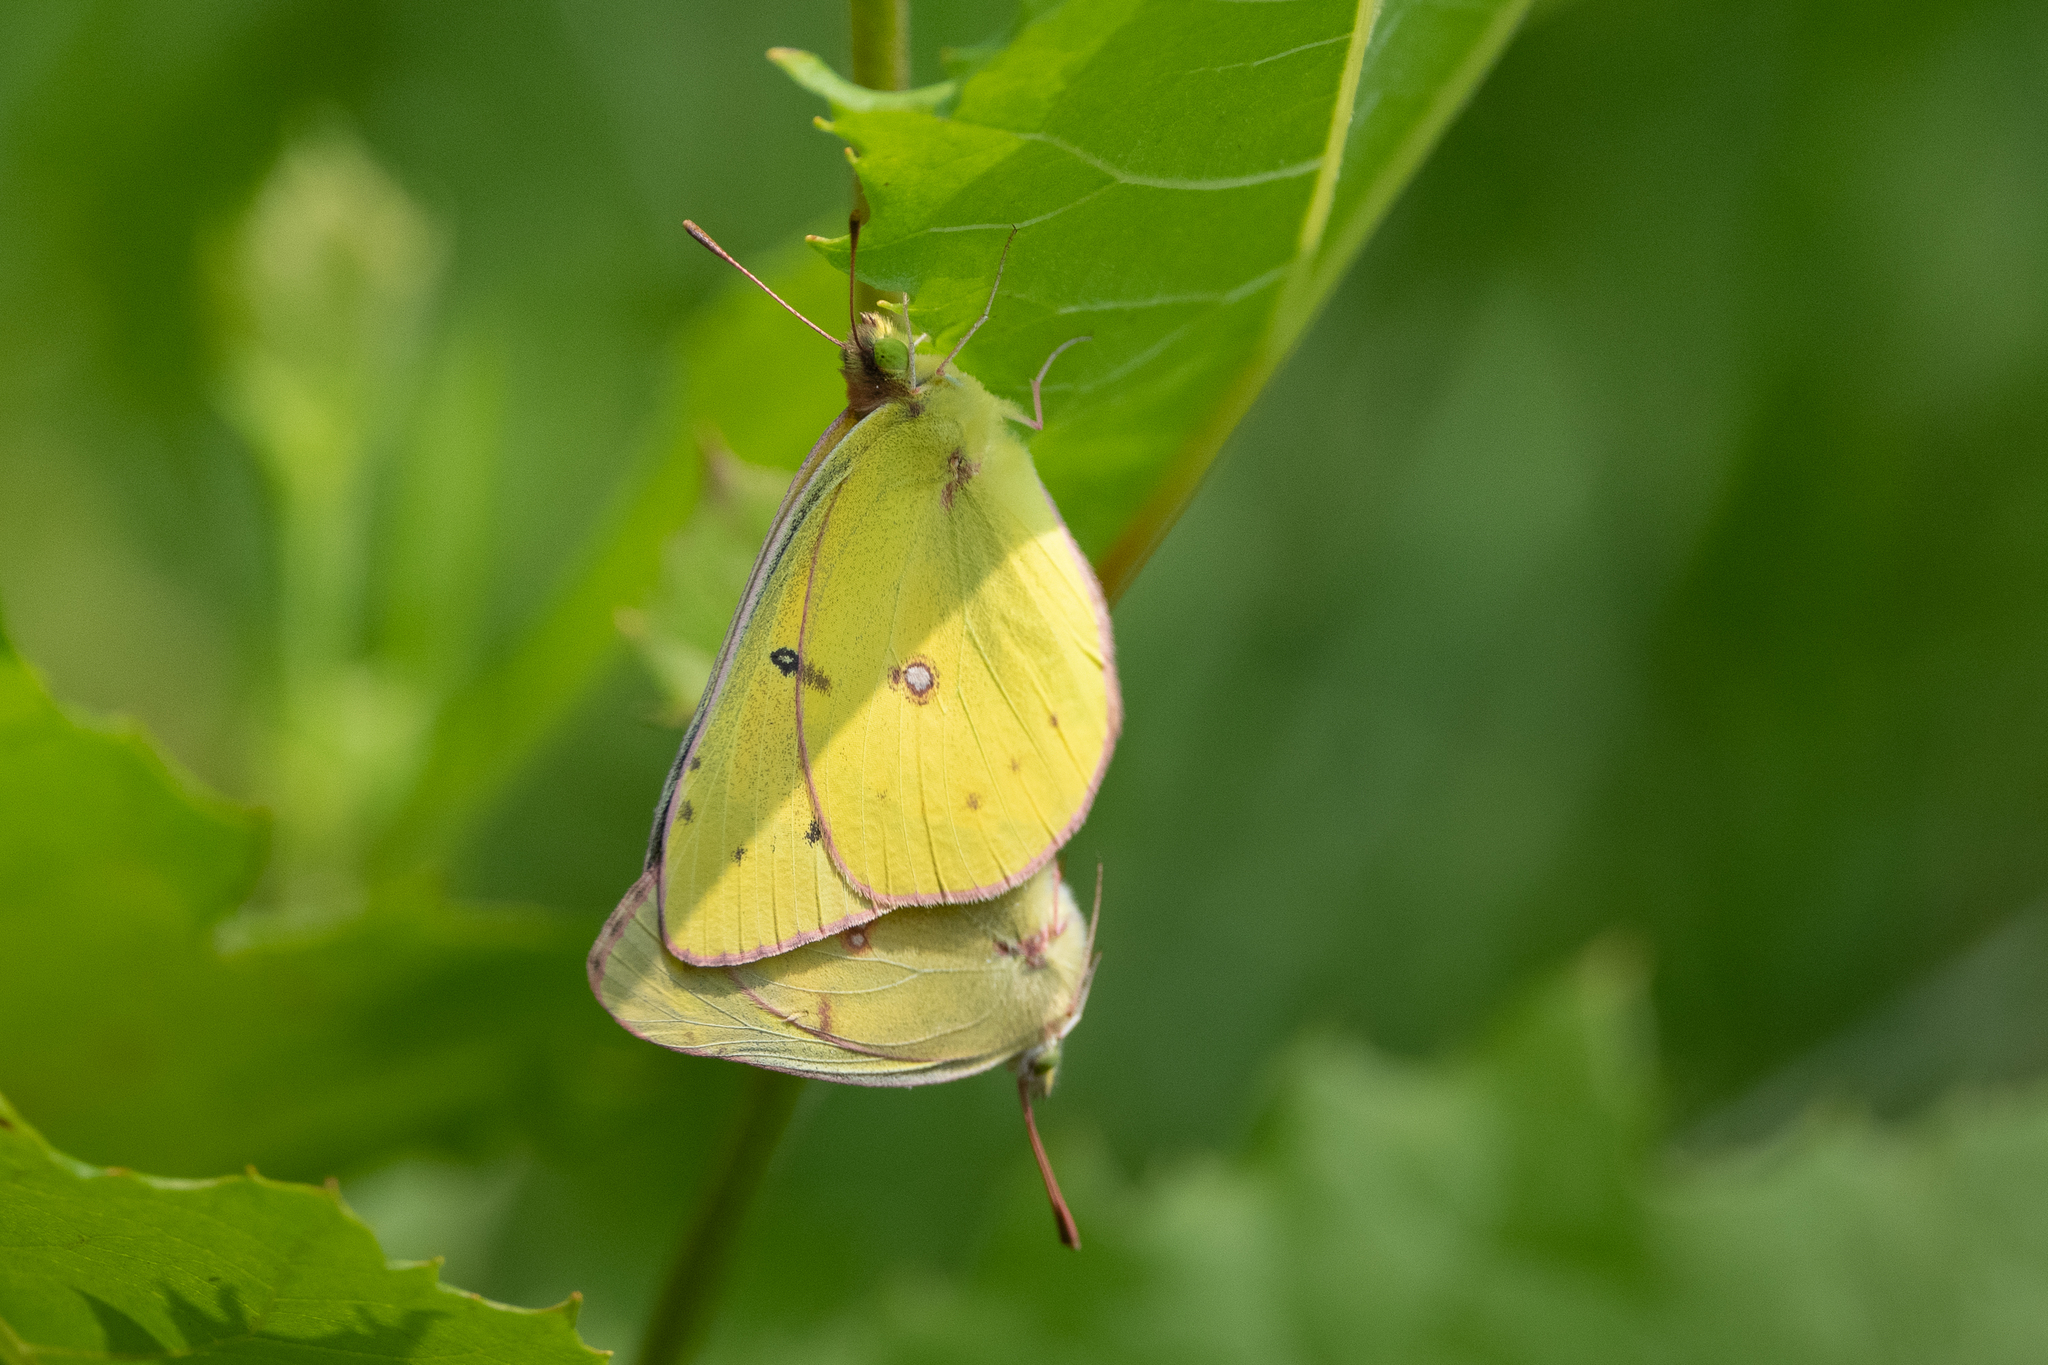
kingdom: Animalia
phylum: Arthropoda
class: Insecta
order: Lepidoptera
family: Pieridae
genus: Colias
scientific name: Colias philodice
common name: Clouded sulphur
